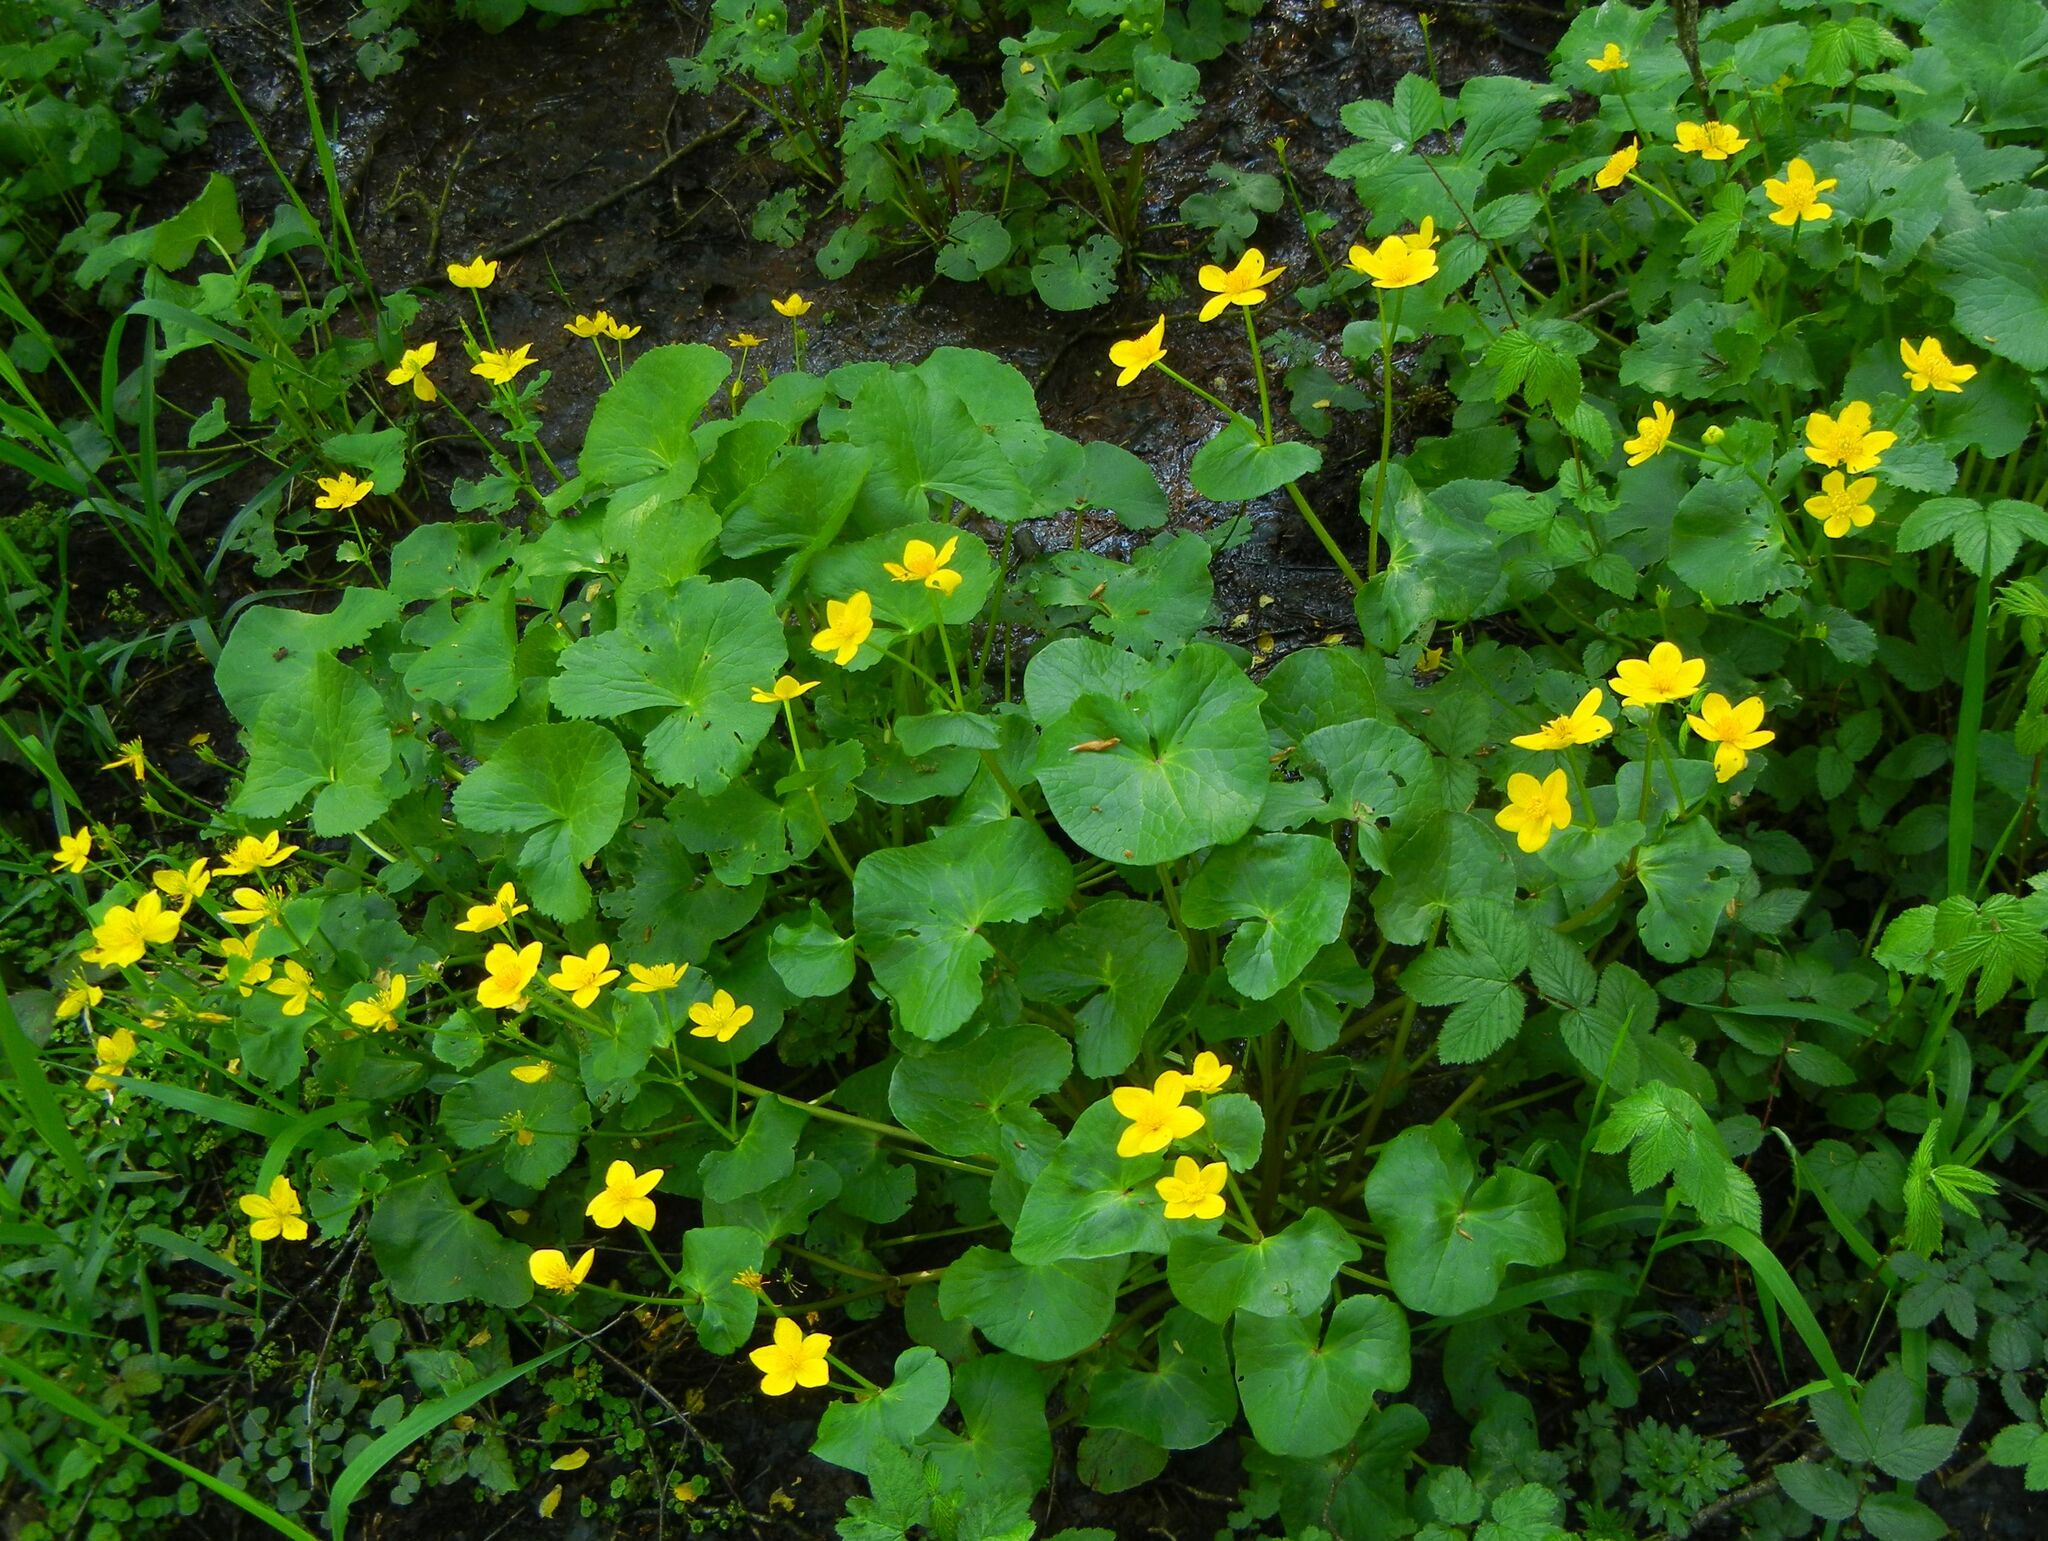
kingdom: Plantae
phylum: Tracheophyta
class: Magnoliopsida
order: Ranunculales
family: Ranunculaceae
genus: Caltha
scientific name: Caltha palustris
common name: Marsh marigold
